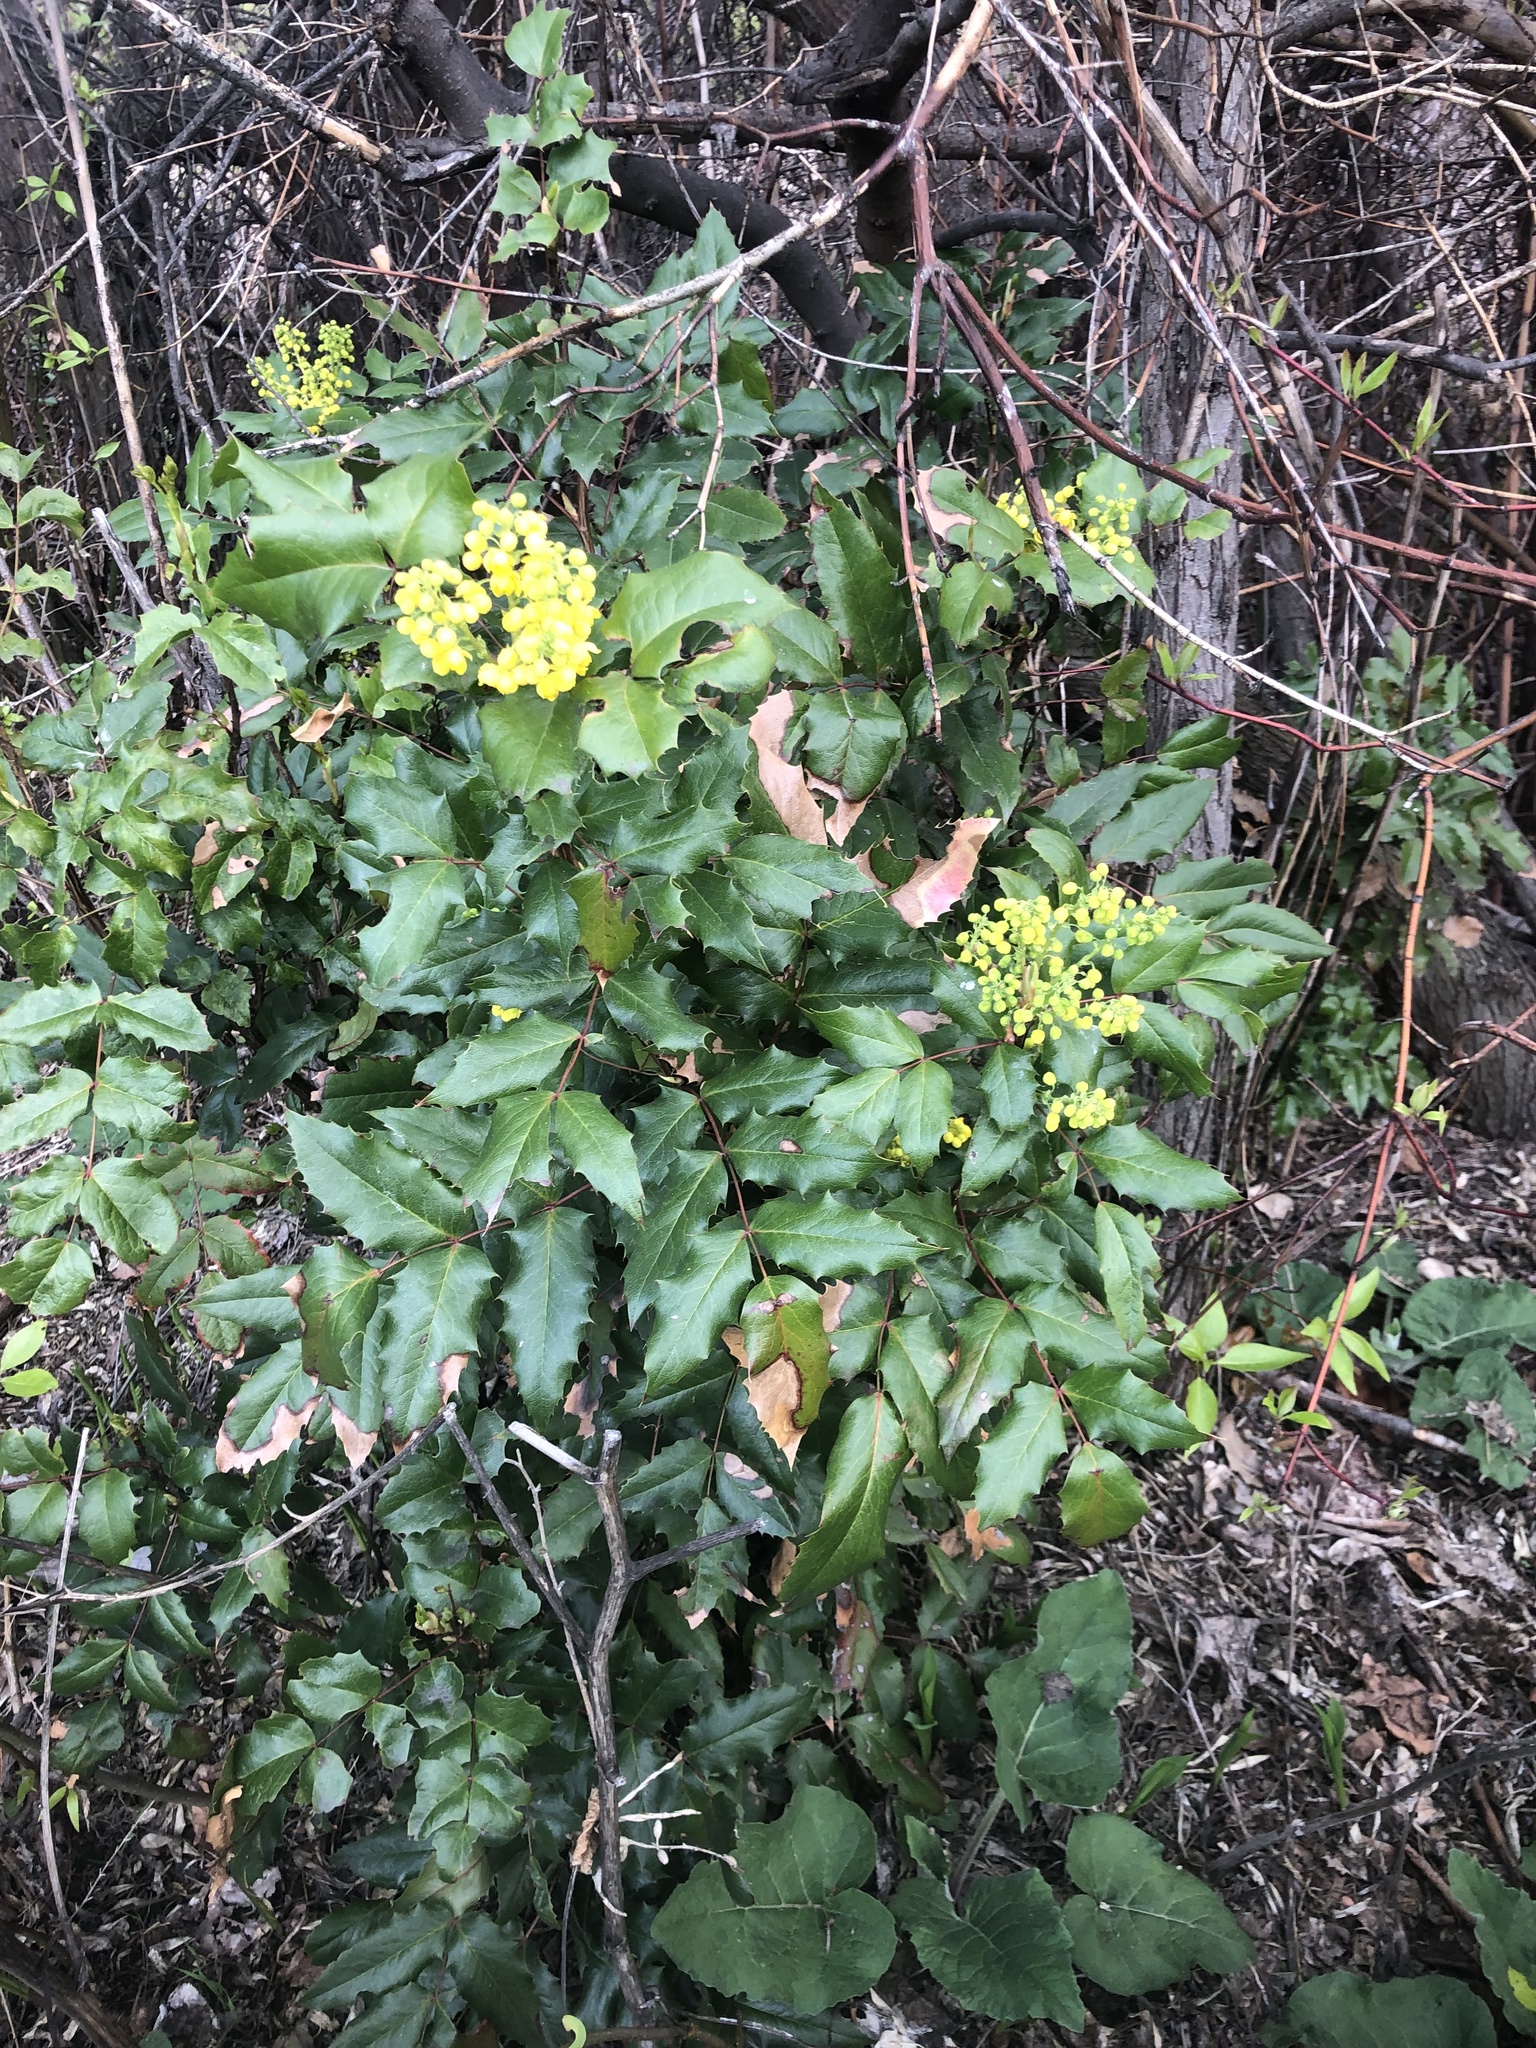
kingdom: Plantae
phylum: Tracheophyta
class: Magnoliopsida
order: Ranunculales
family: Berberidaceae
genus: Mahonia
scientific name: Mahonia aquifolium
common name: Oregon-grape
